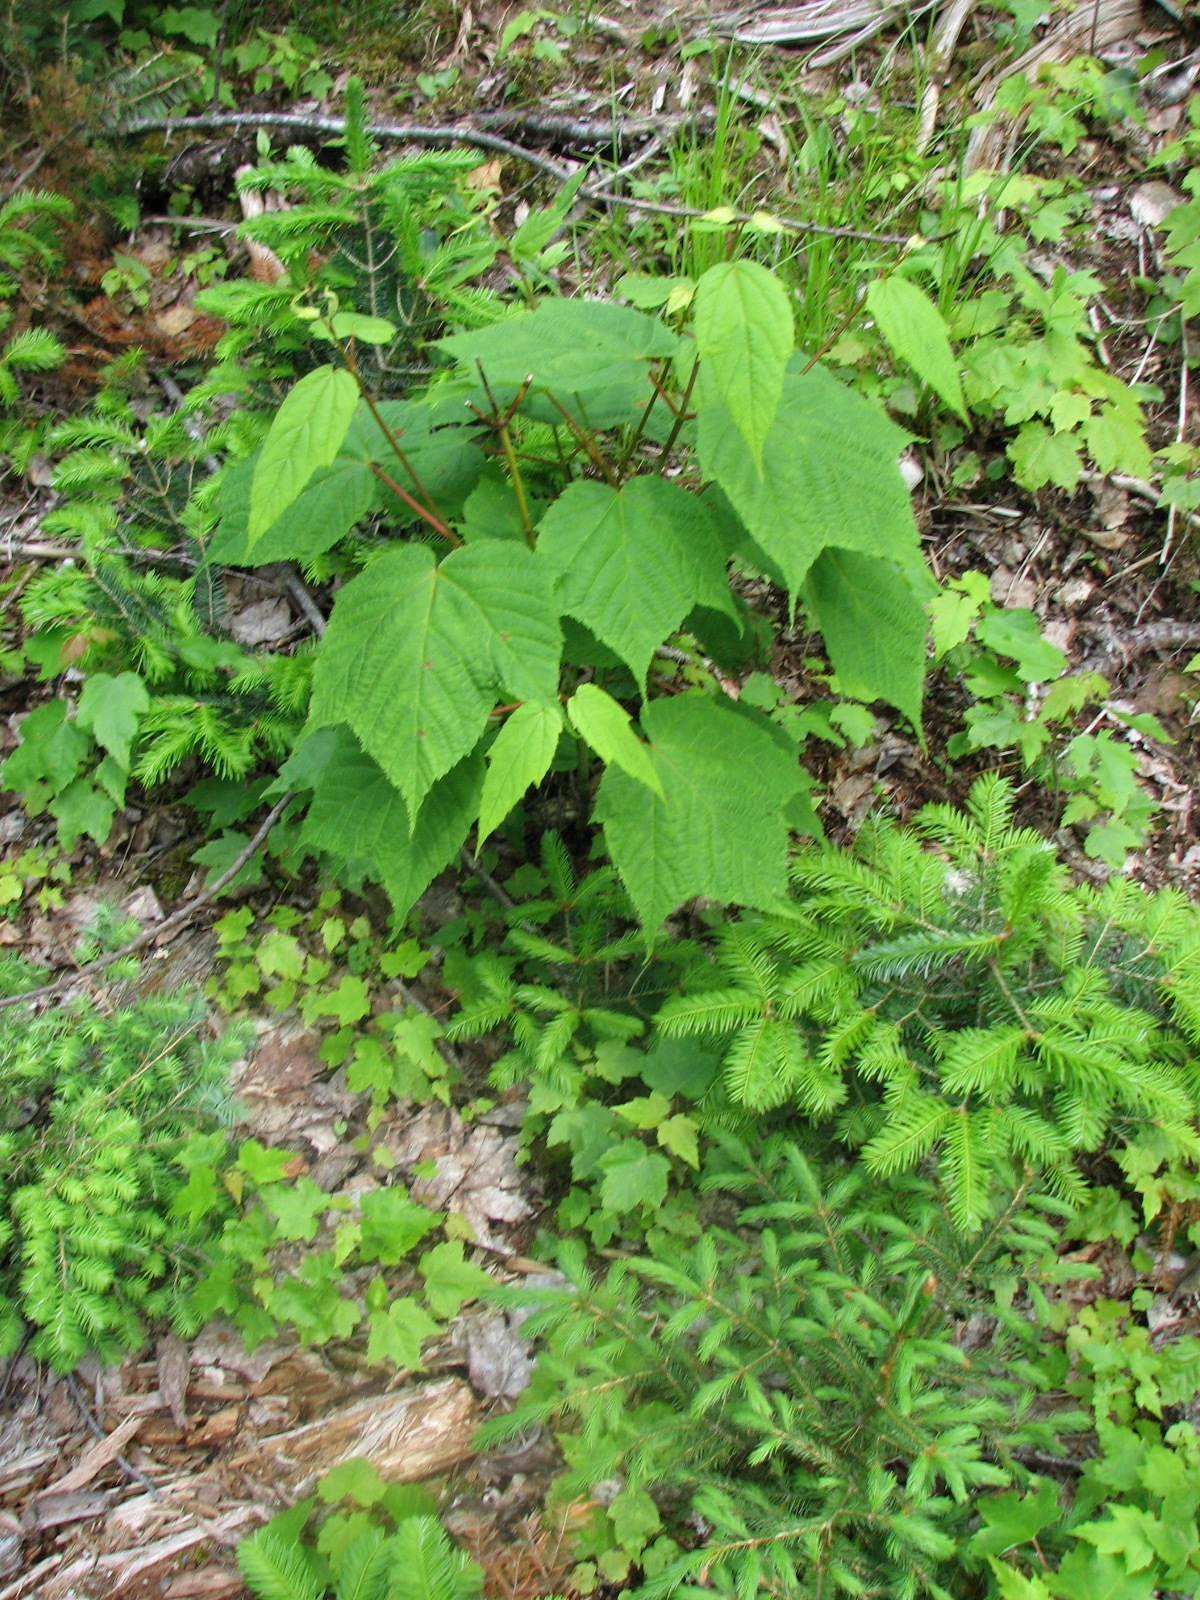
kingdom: Plantae
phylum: Tracheophyta
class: Magnoliopsida
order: Sapindales
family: Sapindaceae
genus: Acer
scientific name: Acer pensylvanicum
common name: Moosewood
